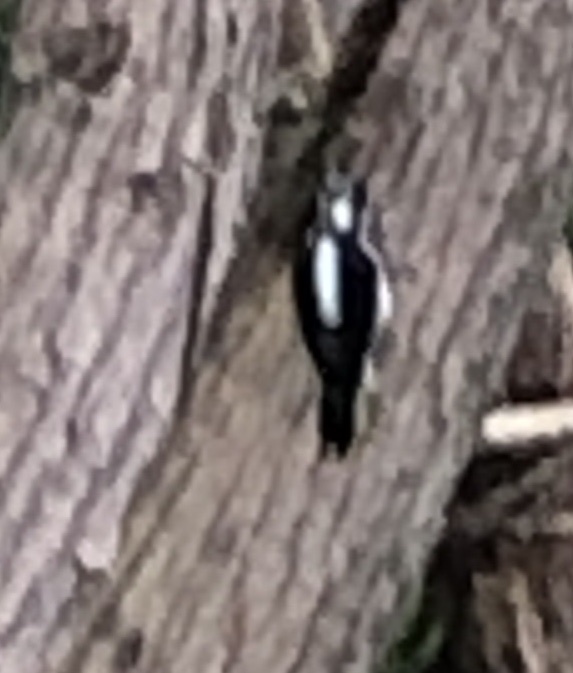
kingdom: Animalia
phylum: Chordata
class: Aves
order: Piciformes
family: Picidae
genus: Leuconotopicus
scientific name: Leuconotopicus villosus
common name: Hairy woodpecker
